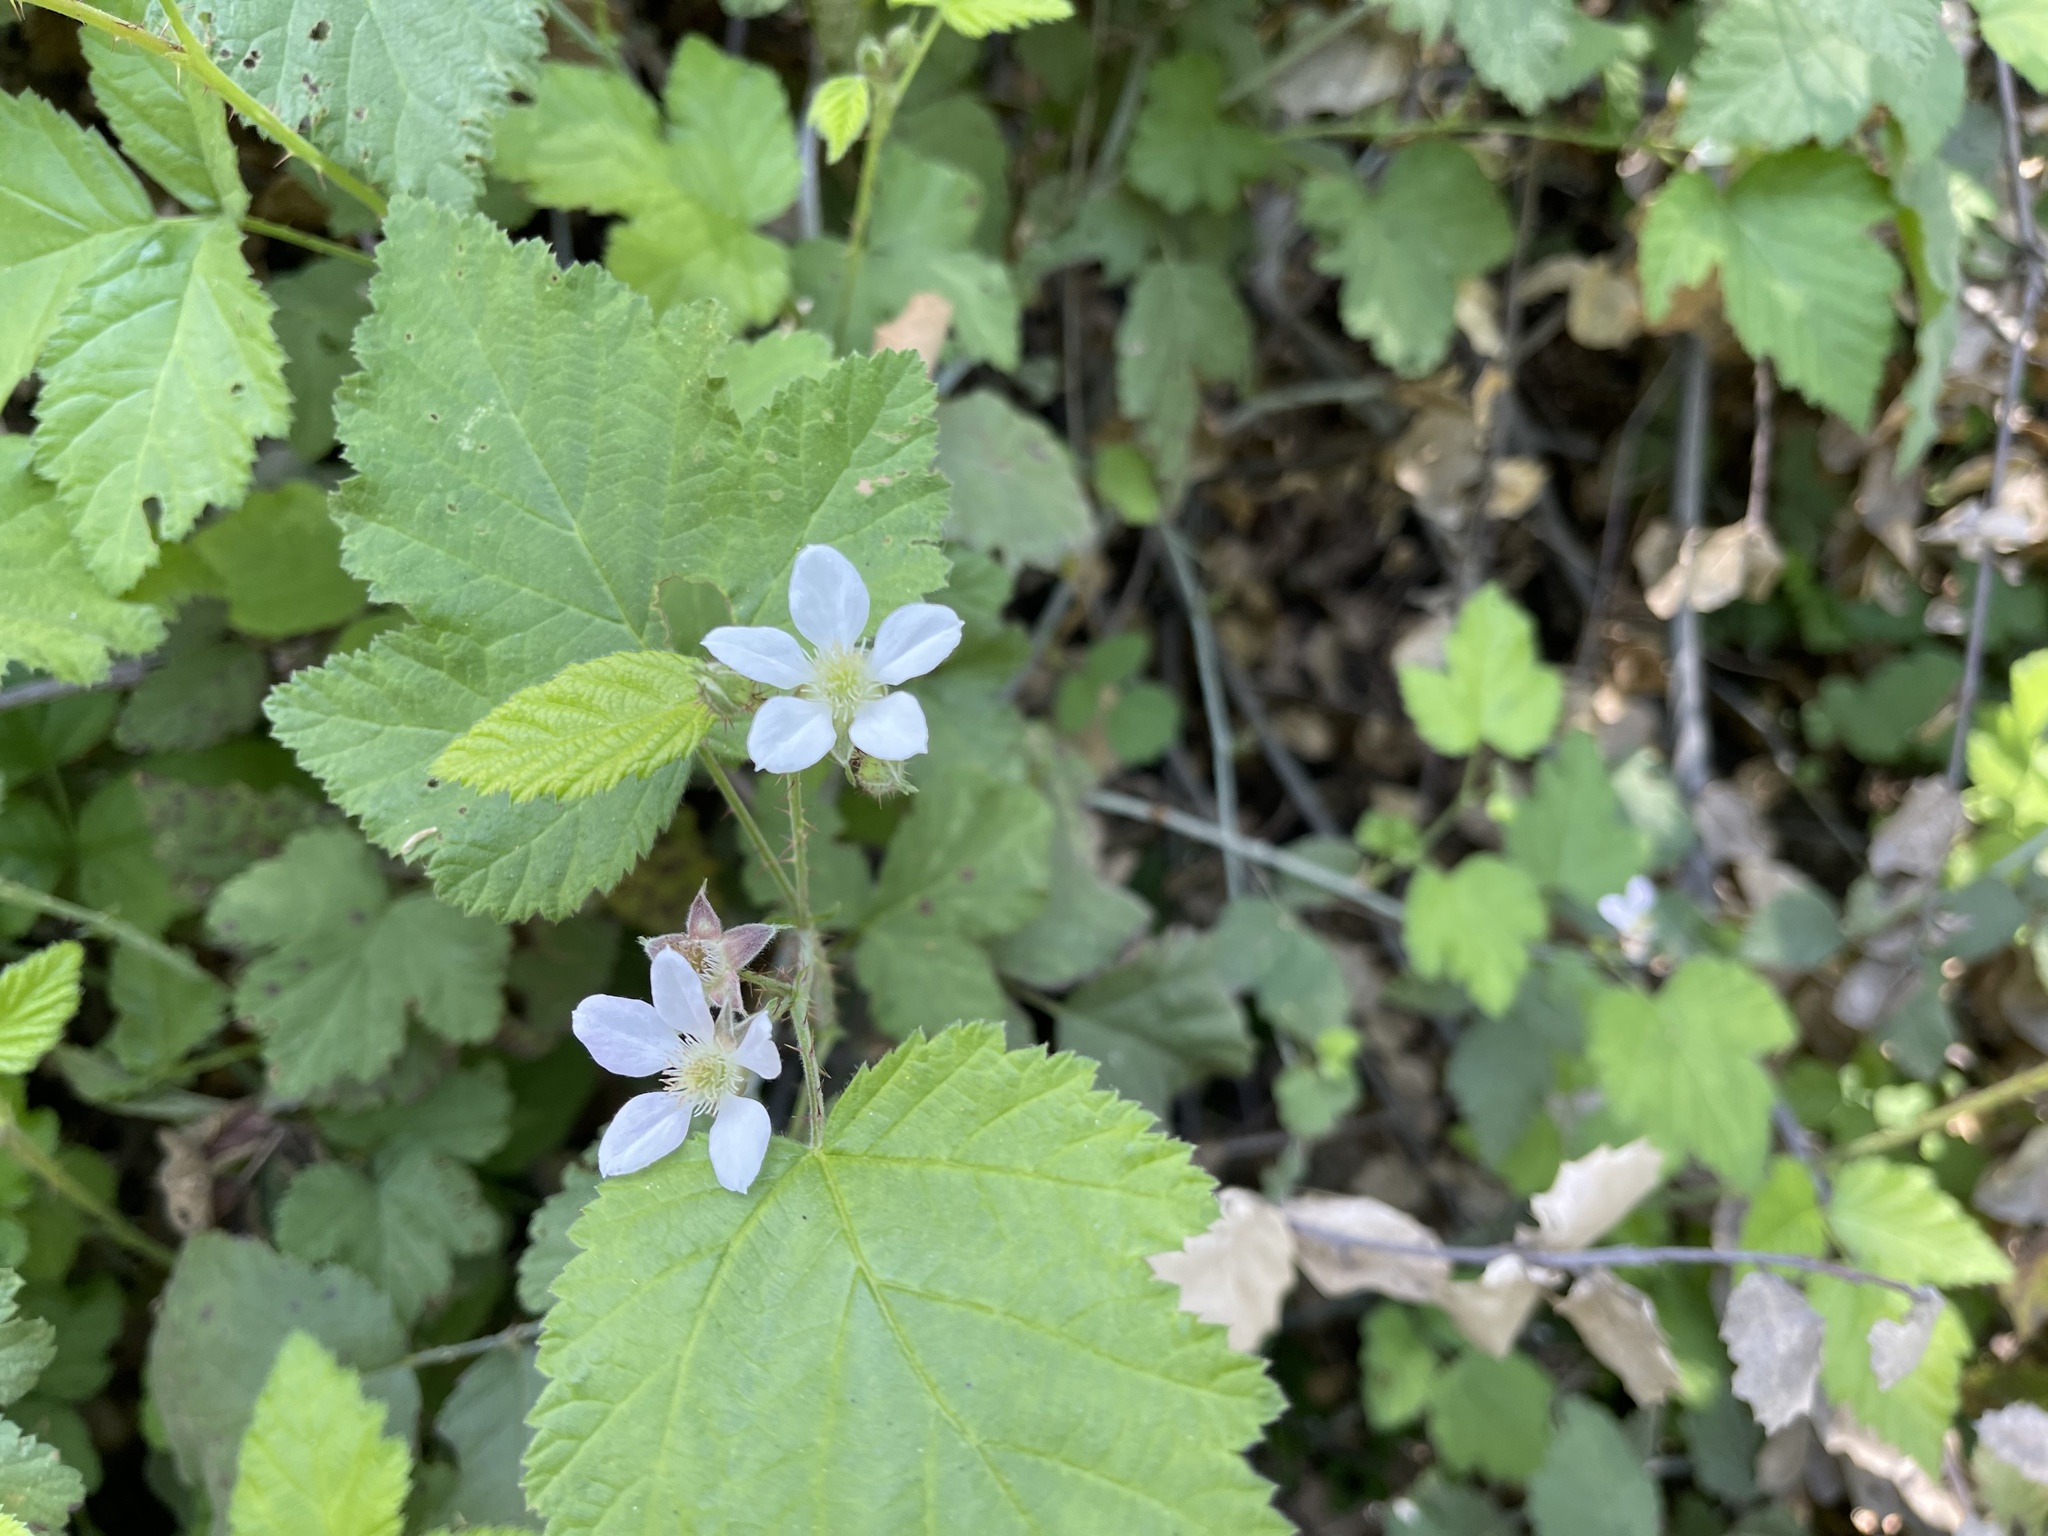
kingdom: Plantae
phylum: Tracheophyta
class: Magnoliopsida
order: Rosales
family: Rosaceae
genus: Rubus
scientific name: Rubus ursinus
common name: Pacific blackberry
